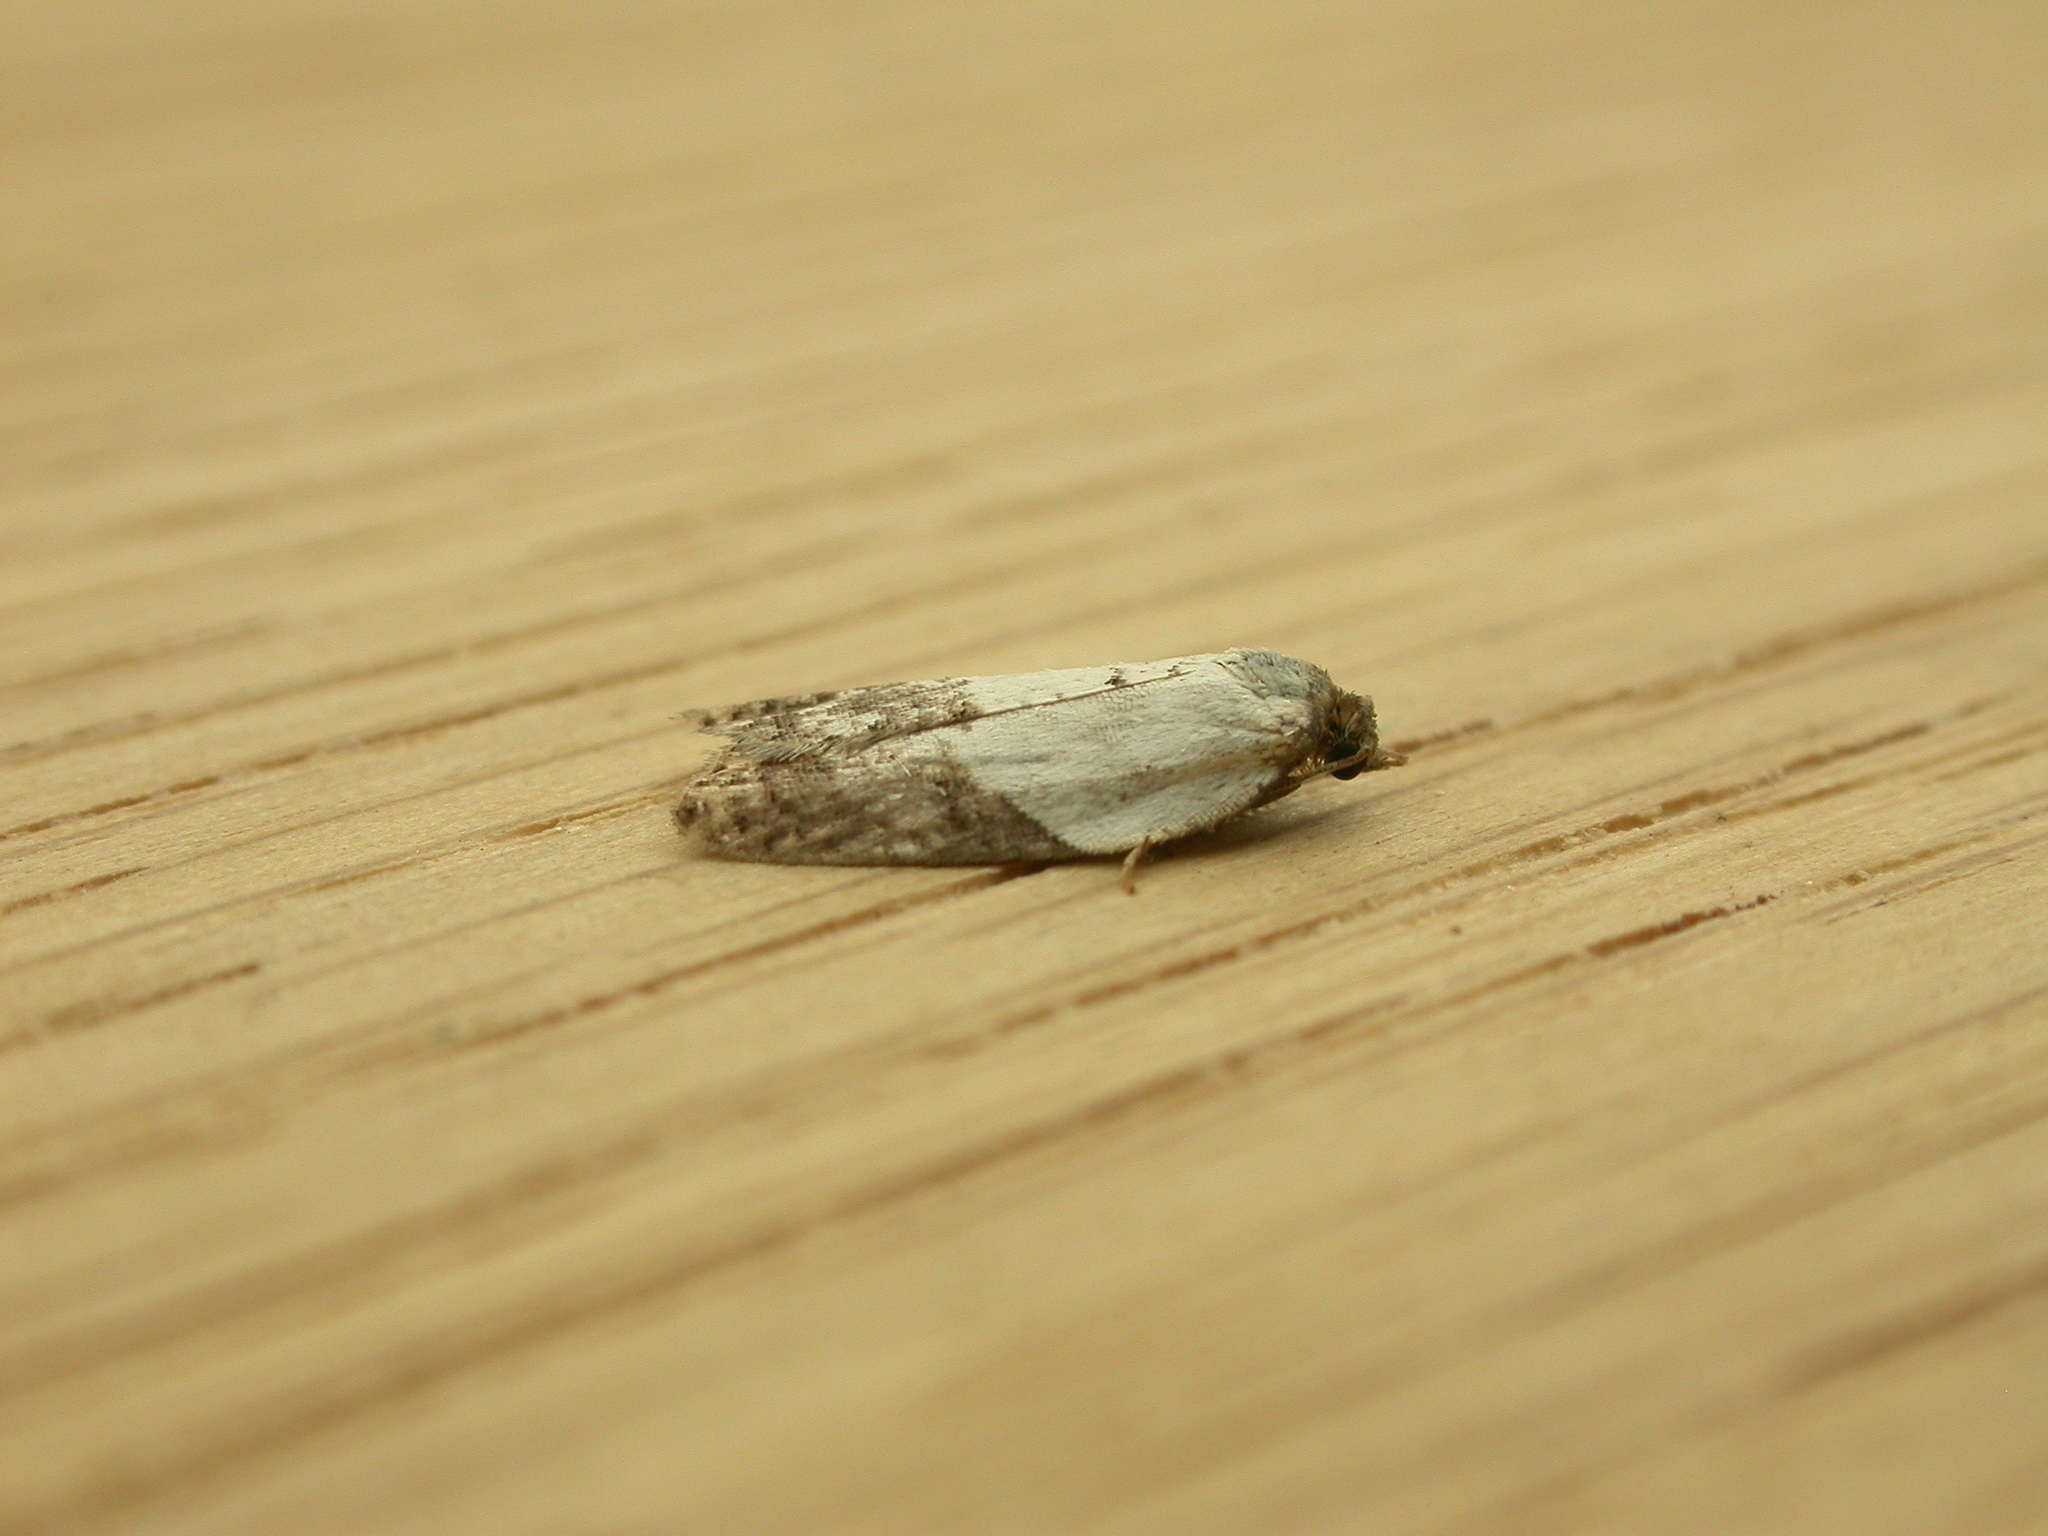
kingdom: Animalia
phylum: Arthropoda
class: Insecta
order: Lepidoptera
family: Tortricidae
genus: Acleris
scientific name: Acleris variegana
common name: Garden rose tortrix
